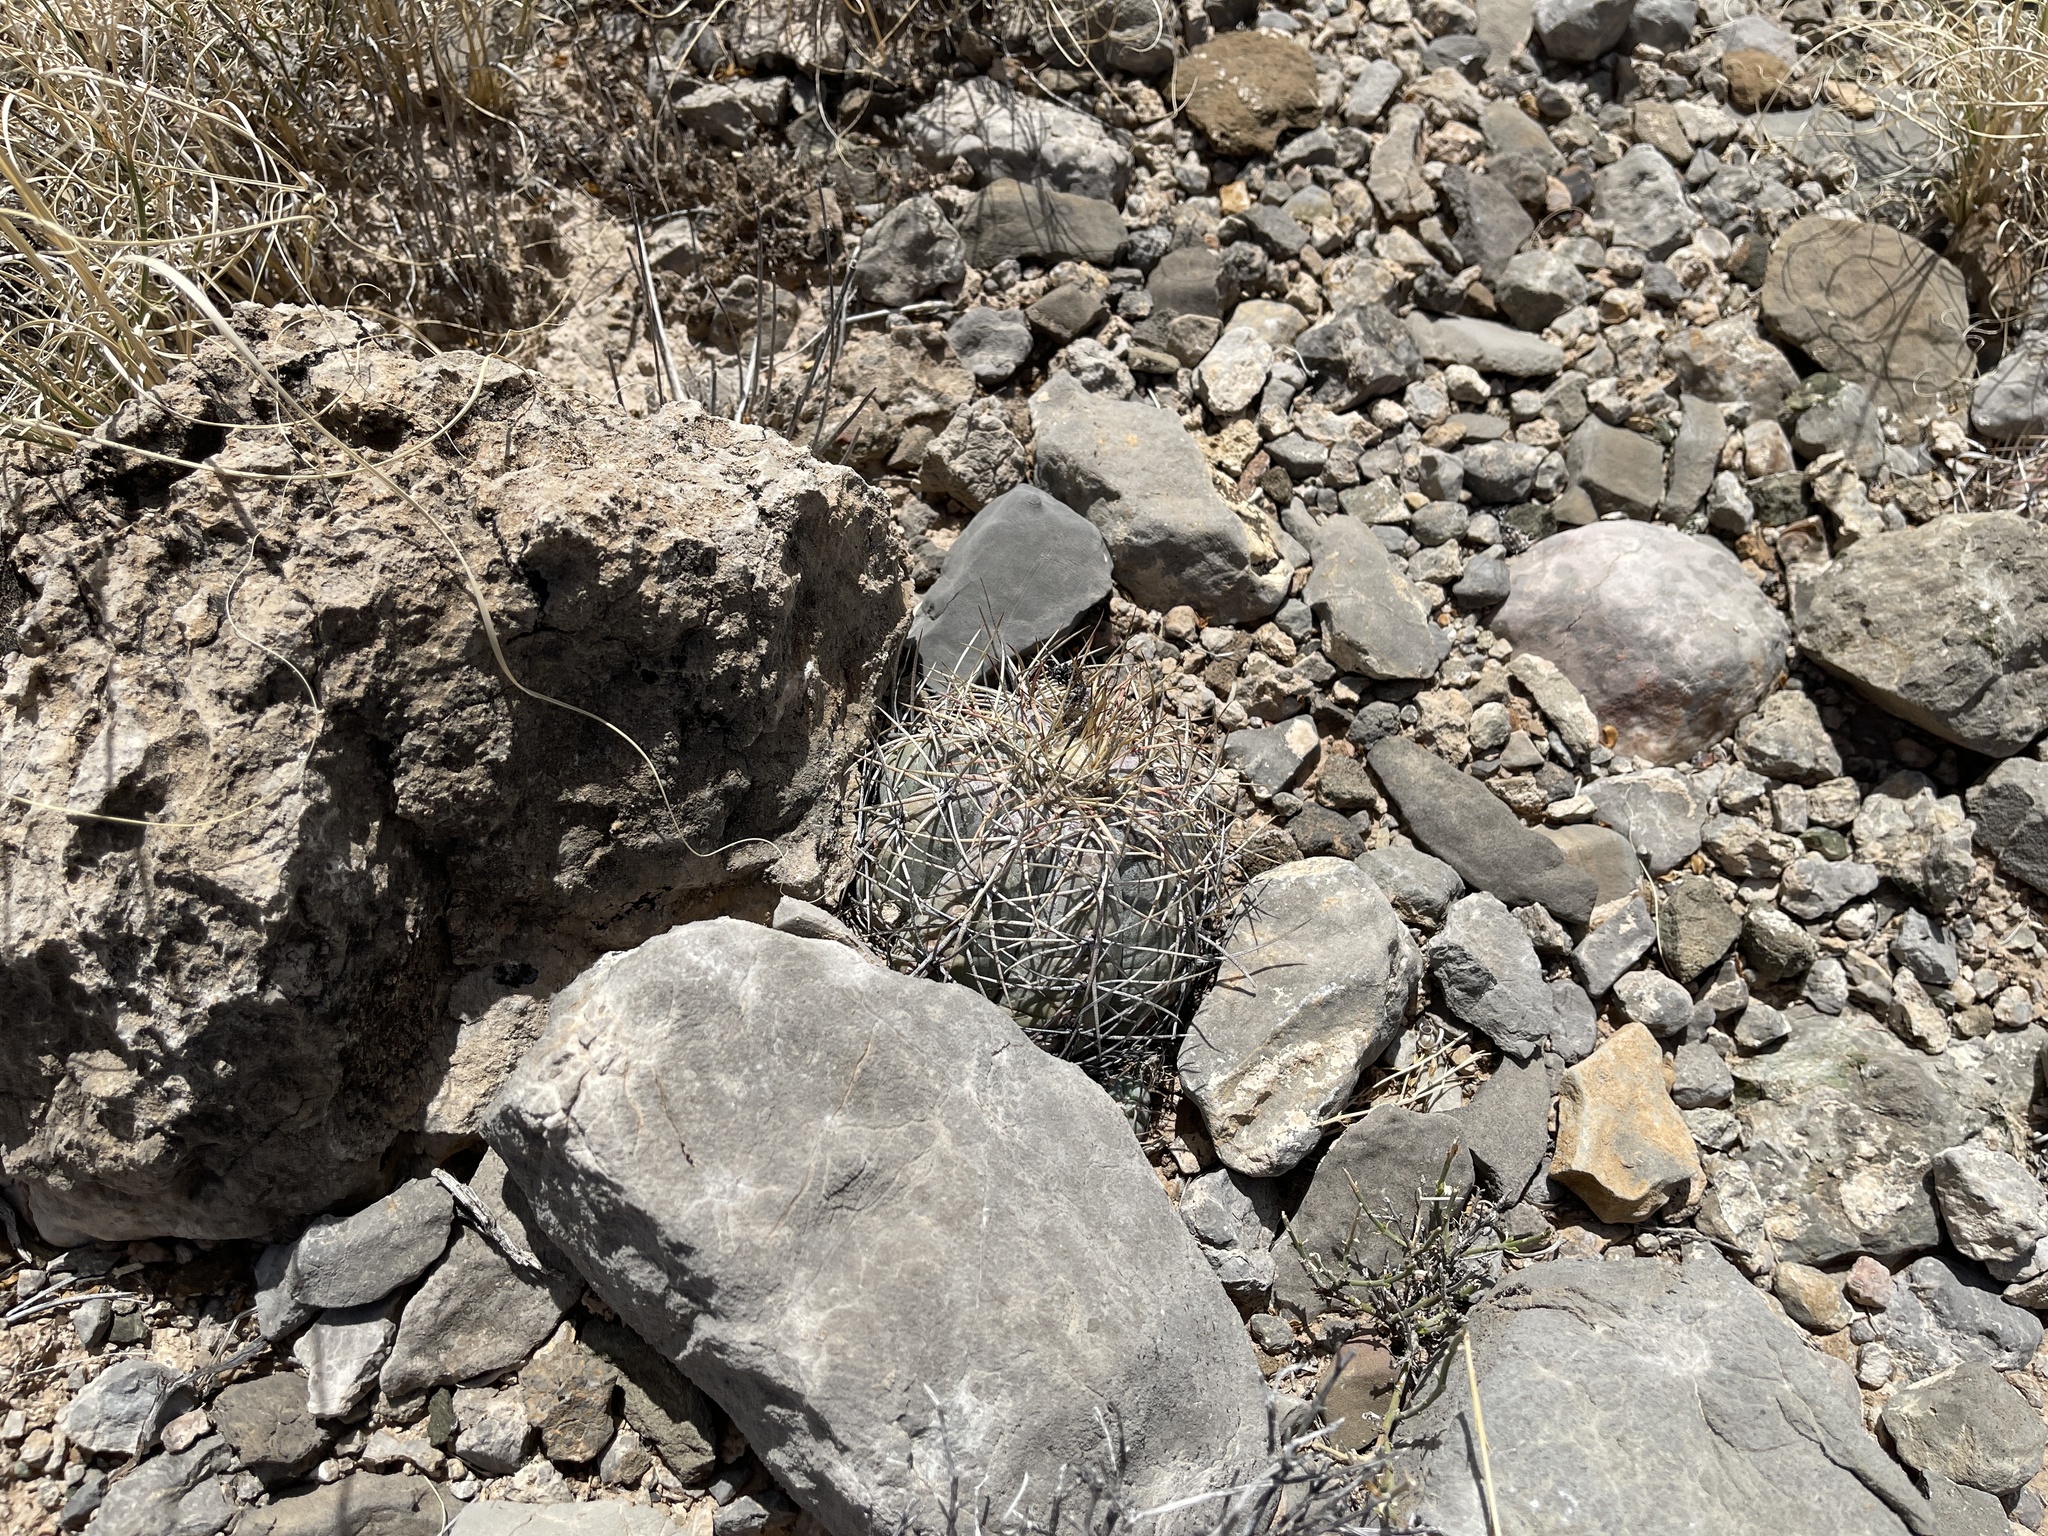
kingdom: Plantae
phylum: Tracheophyta
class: Magnoliopsida
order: Caryophyllales
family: Cactaceae
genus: Echinocactus
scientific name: Echinocactus horizonthalonius
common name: Devilshead
